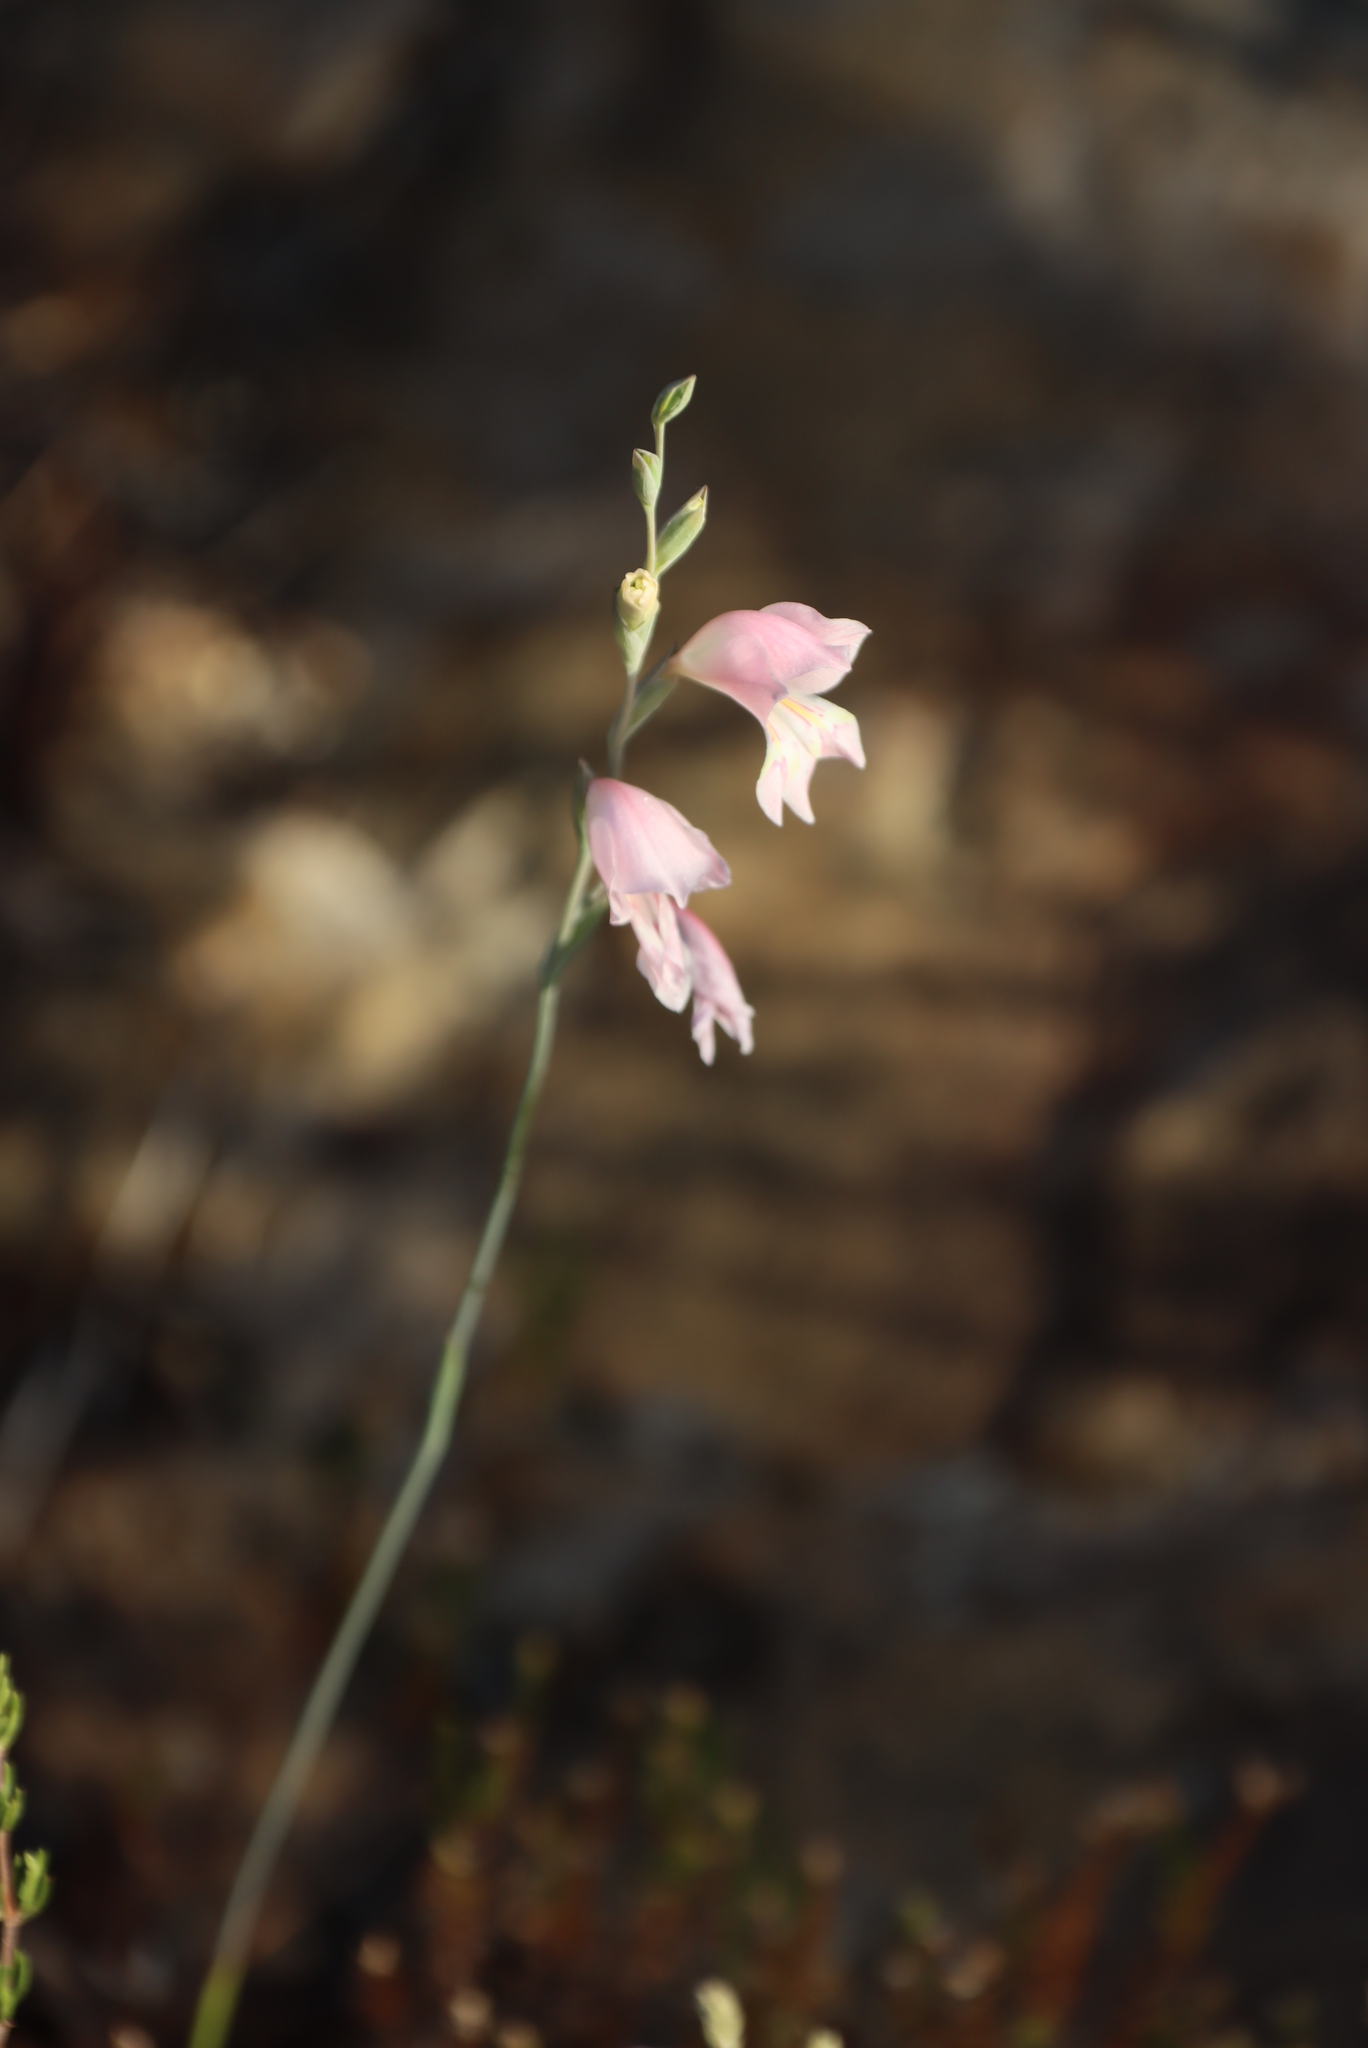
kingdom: Plantae
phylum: Tracheophyta
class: Liliopsida
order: Asparagales
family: Iridaceae
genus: Gladiolus
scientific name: Gladiolus brevifolius
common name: March pypie
